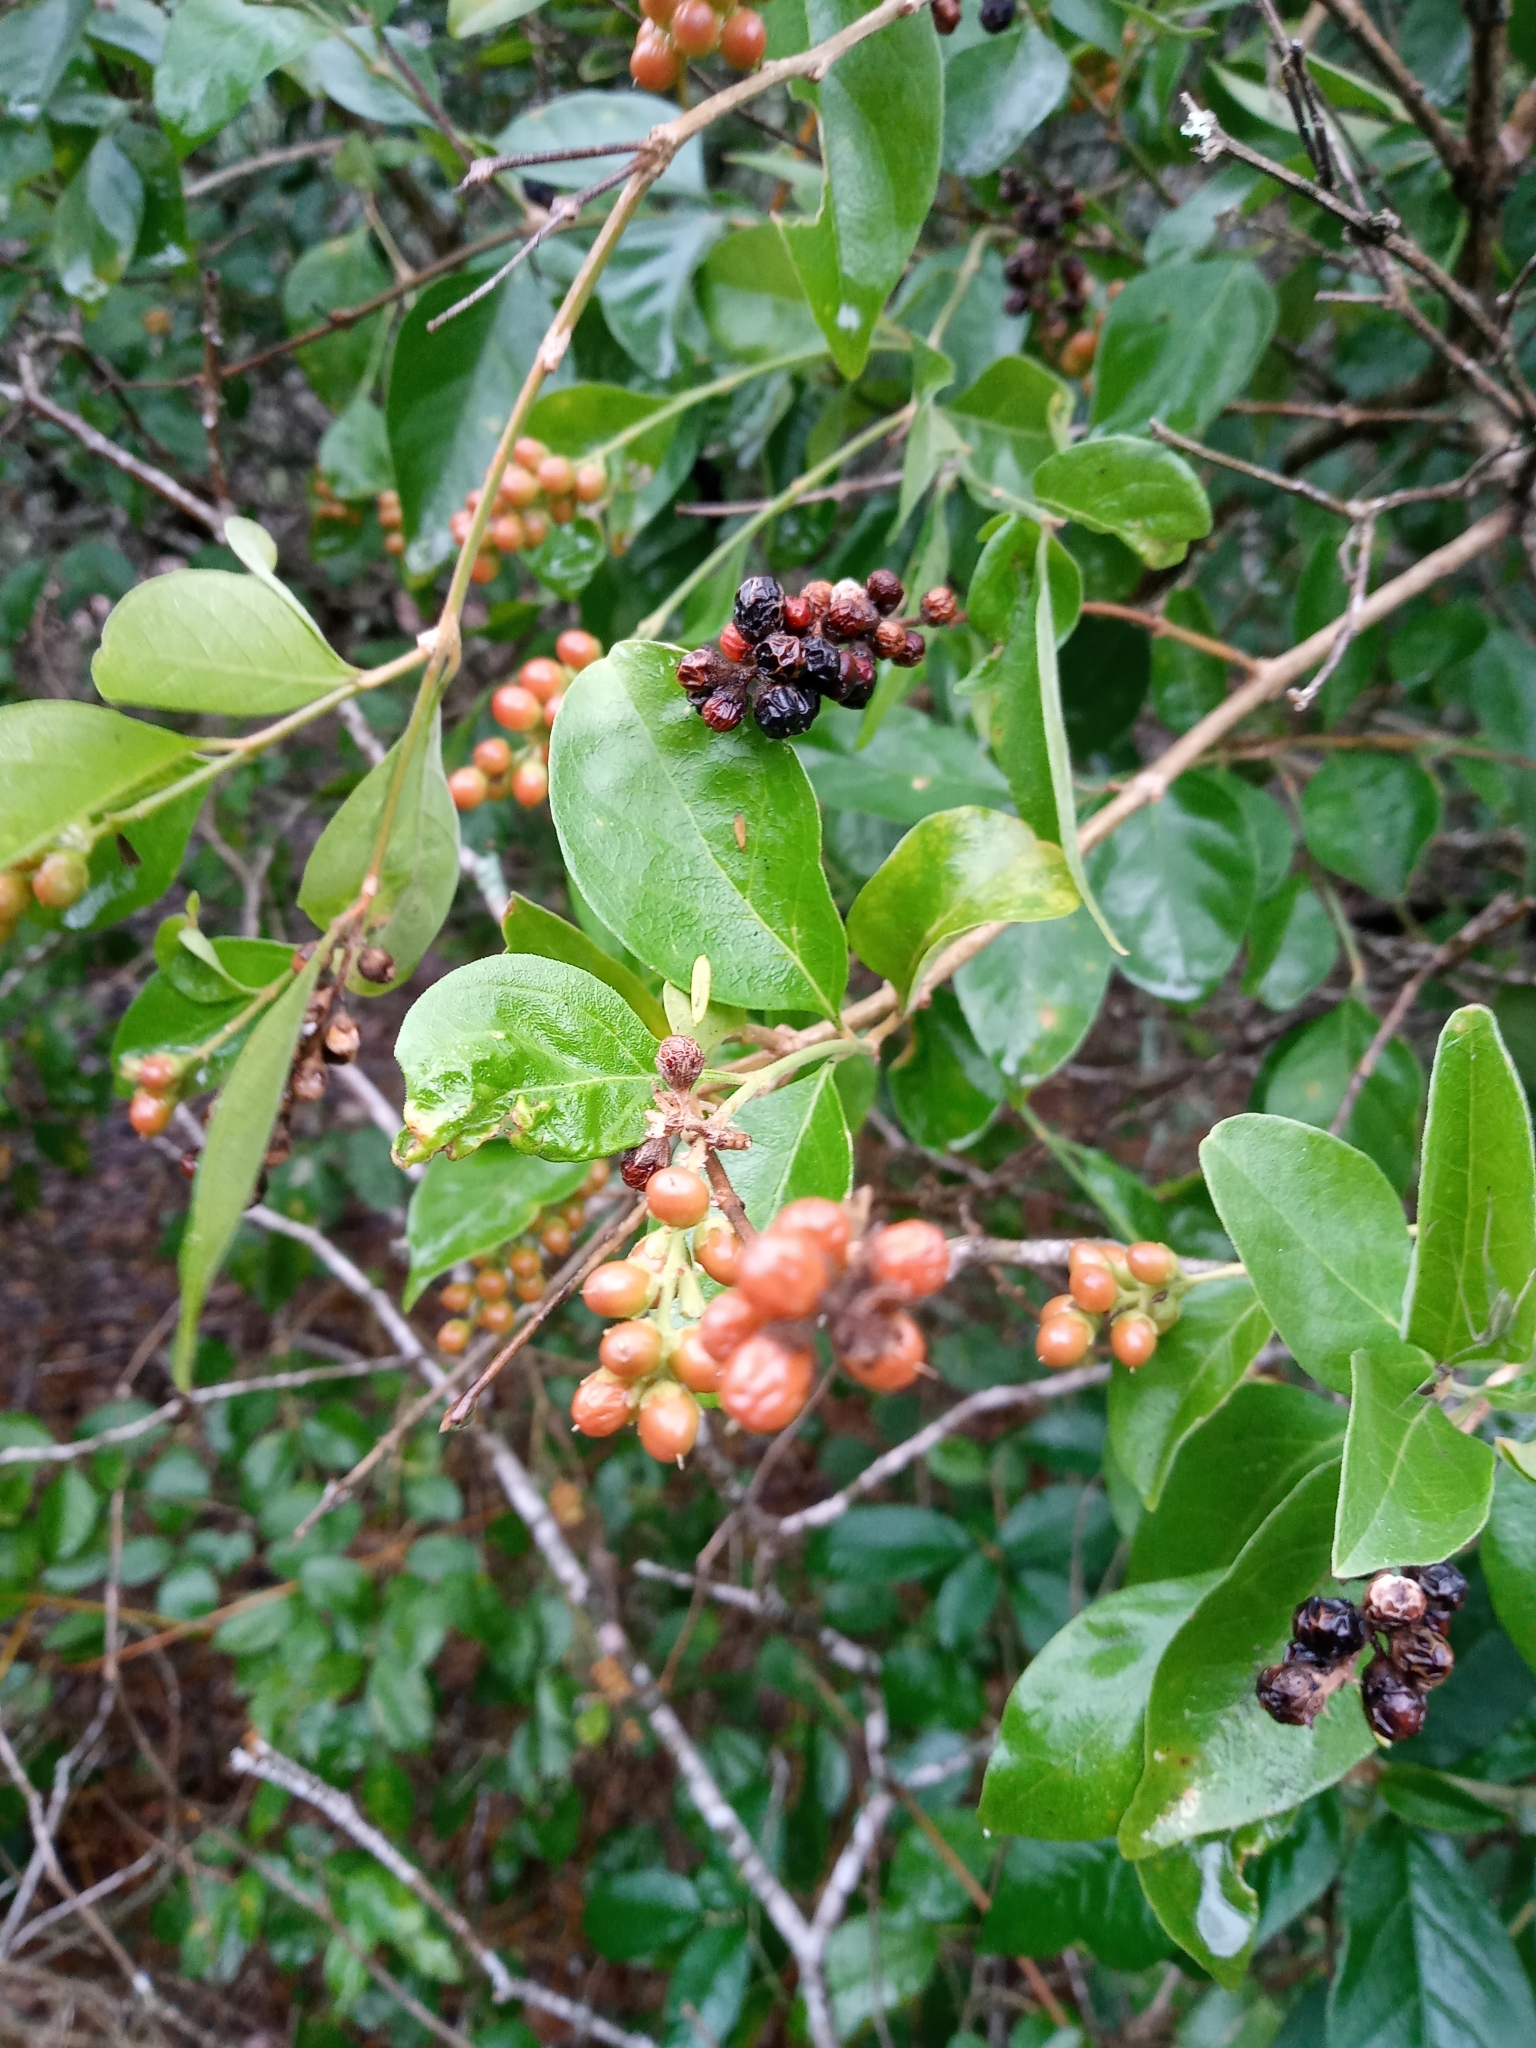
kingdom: Plantae
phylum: Tracheophyta
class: Magnoliopsida
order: Lamiales
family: Verbenaceae
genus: Citharexylum
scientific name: Citharexylum berlandieri
